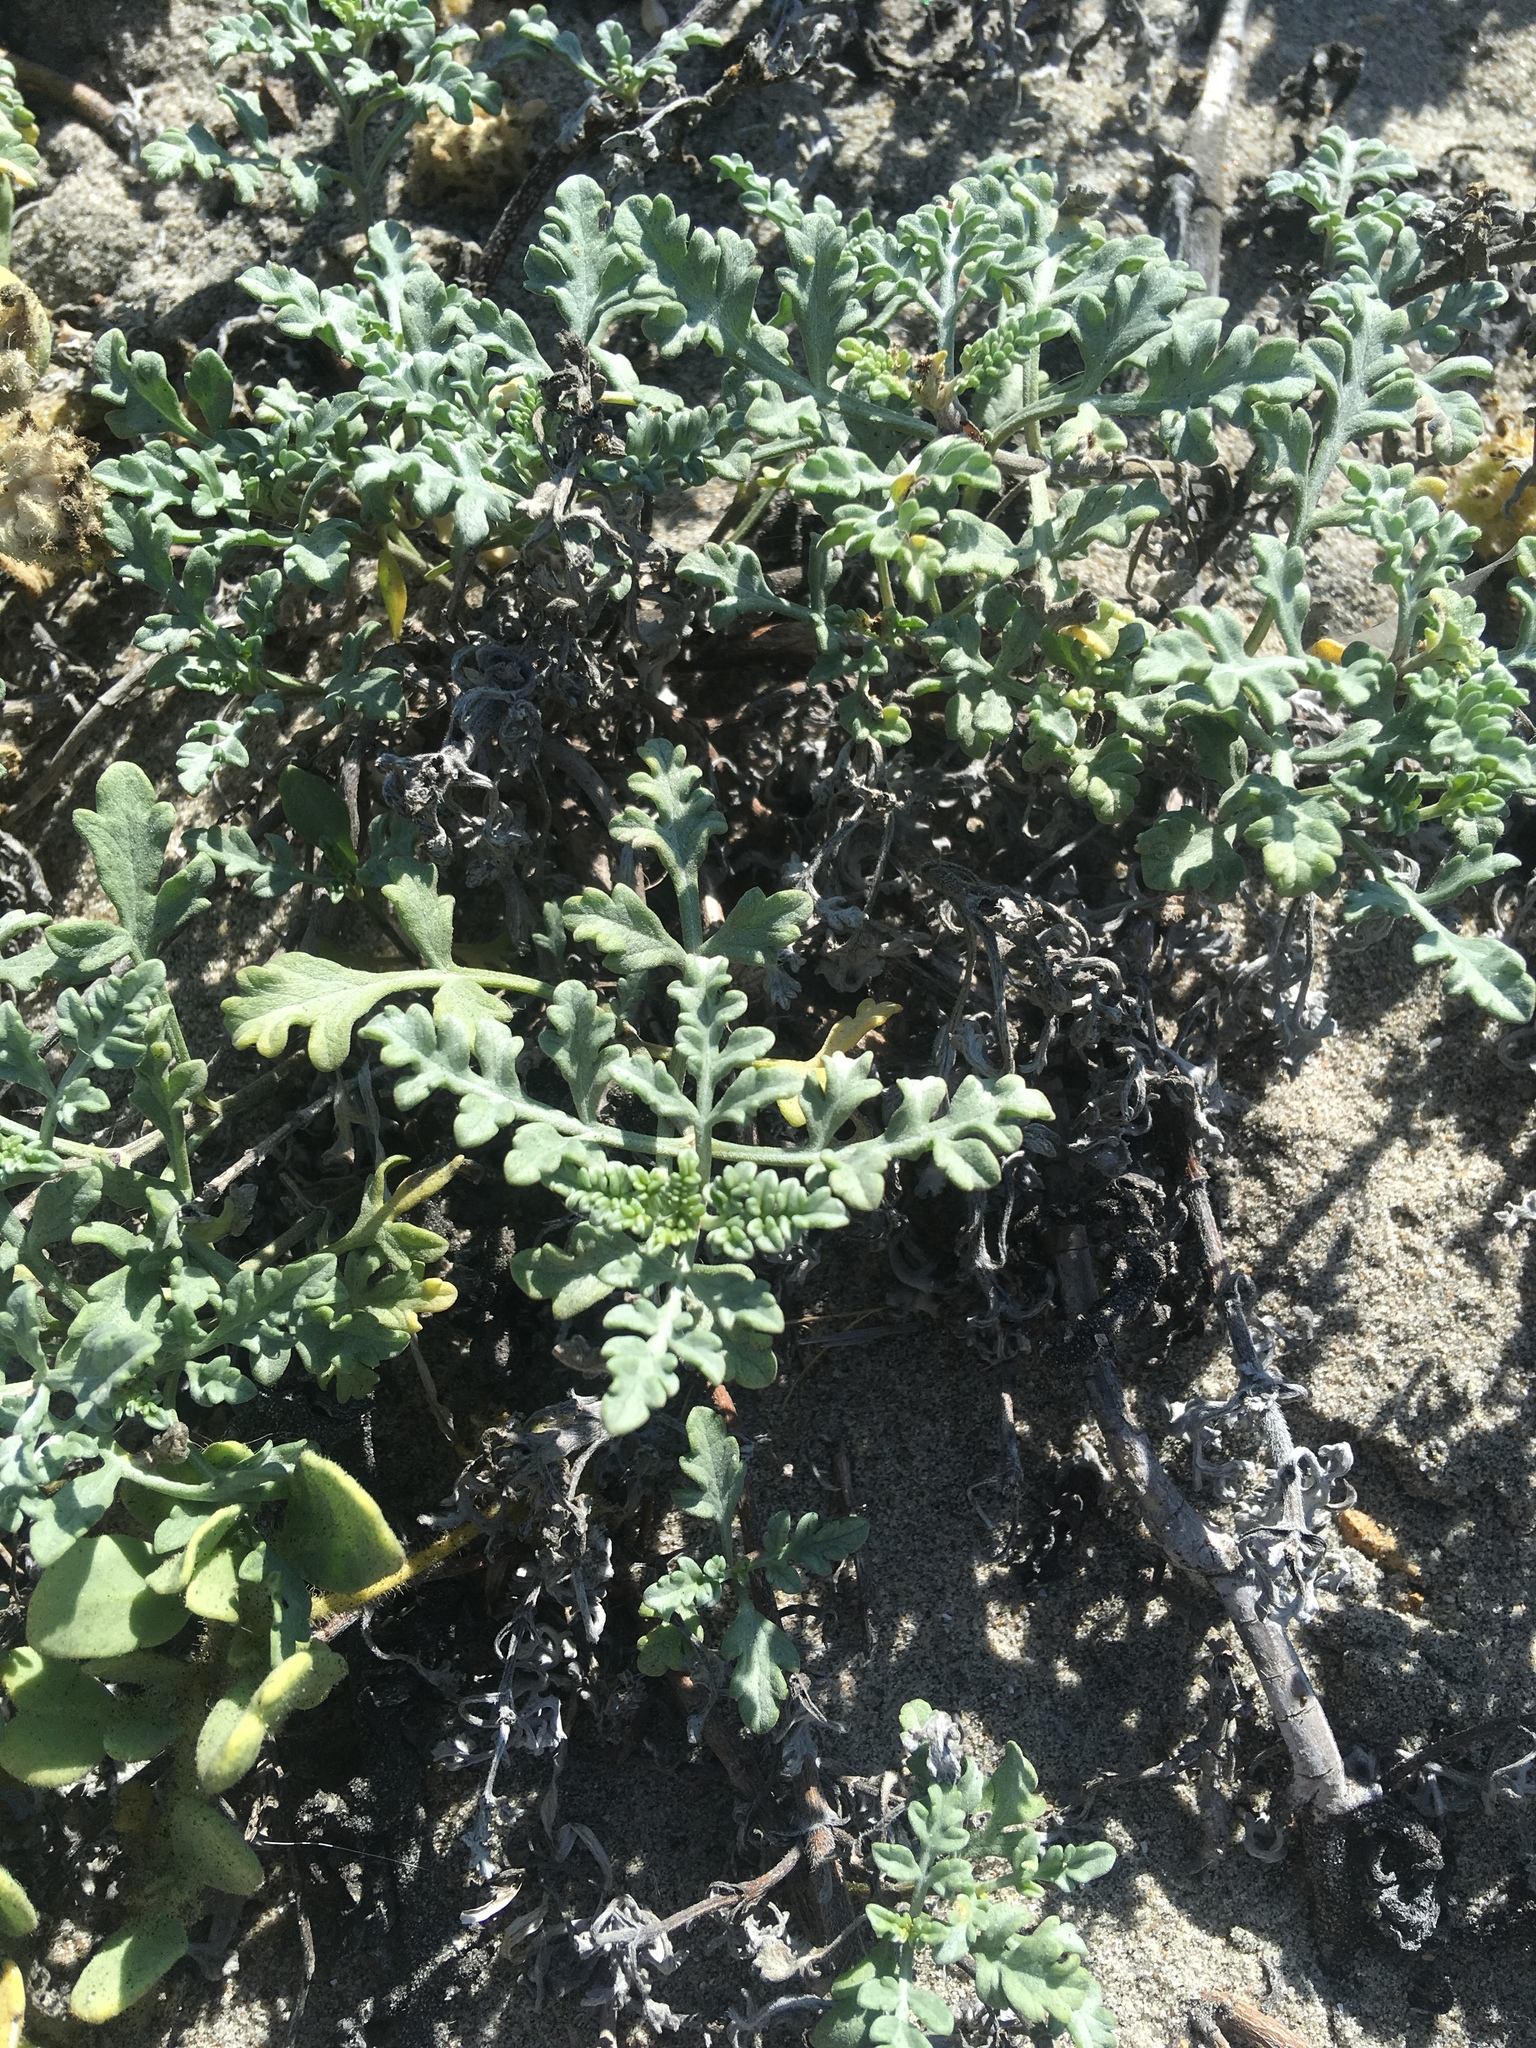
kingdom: Plantae
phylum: Tracheophyta
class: Magnoliopsida
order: Asterales
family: Asteraceae
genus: Ambrosia
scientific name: Ambrosia chamissonis
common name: Beachbur
